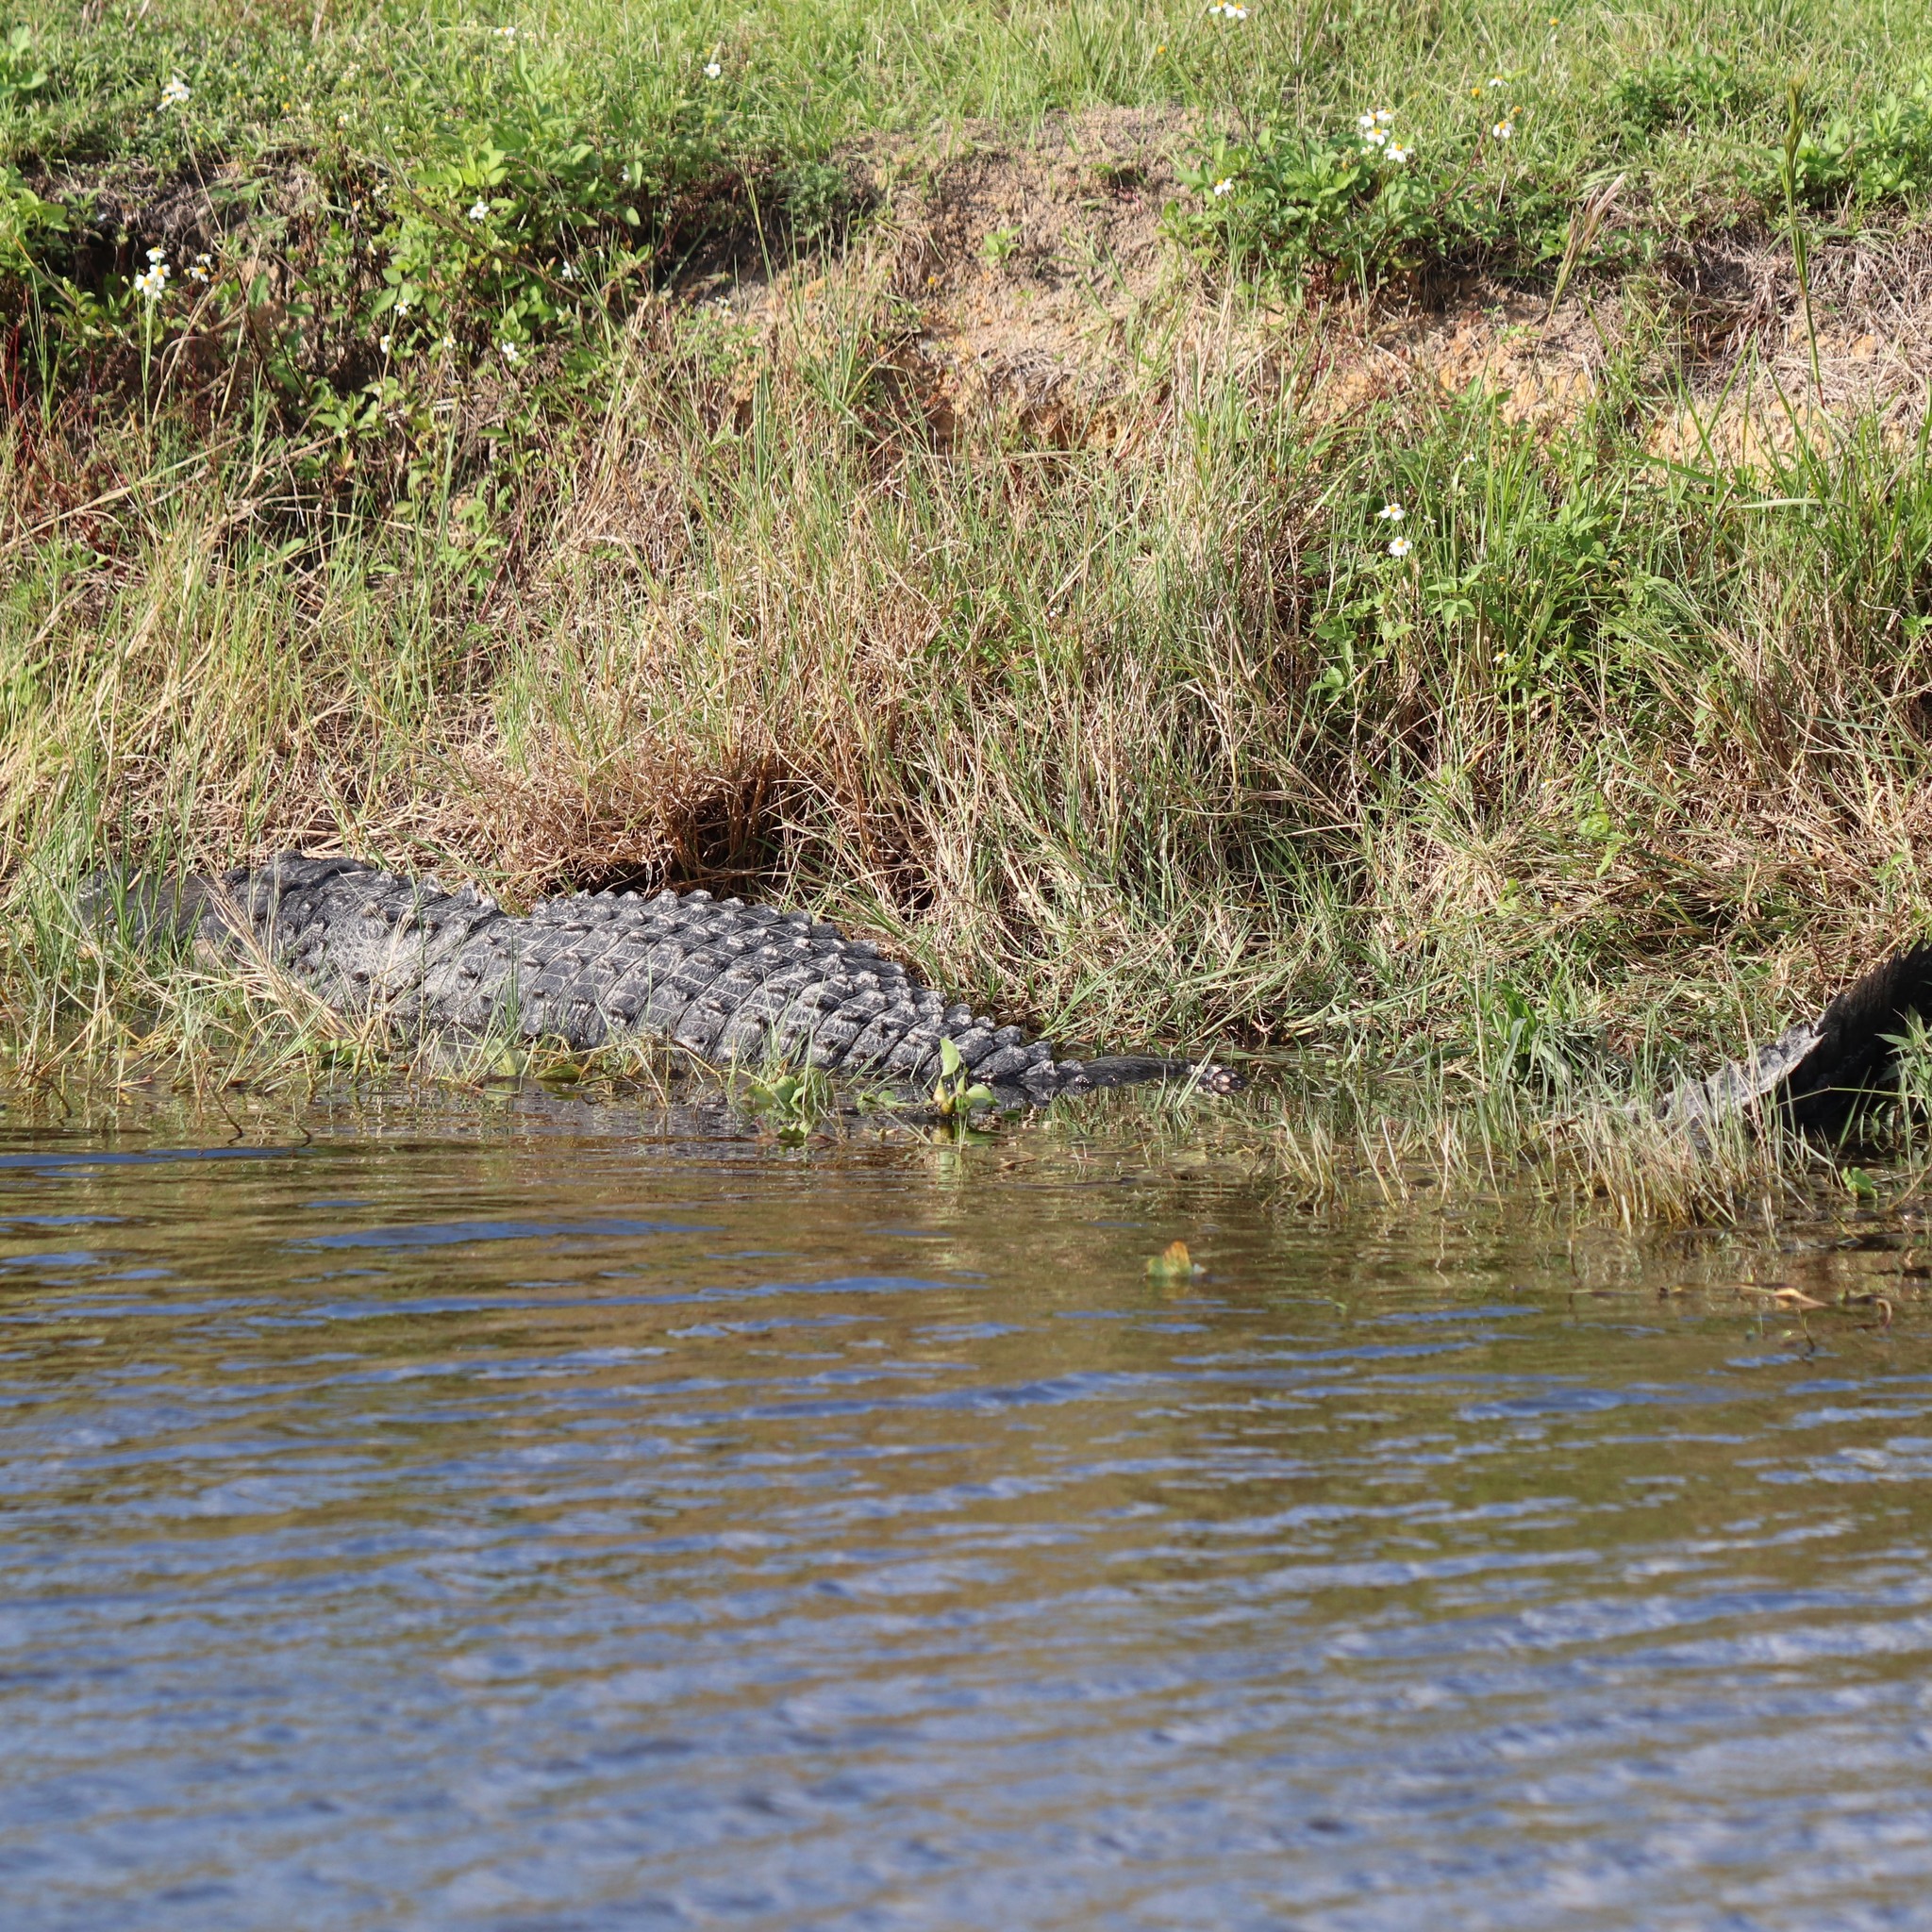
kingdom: Animalia
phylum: Chordata
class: Crocodylia
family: Alligatoridae
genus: Alligator
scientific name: Alligator mississippiensis
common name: American alligator
